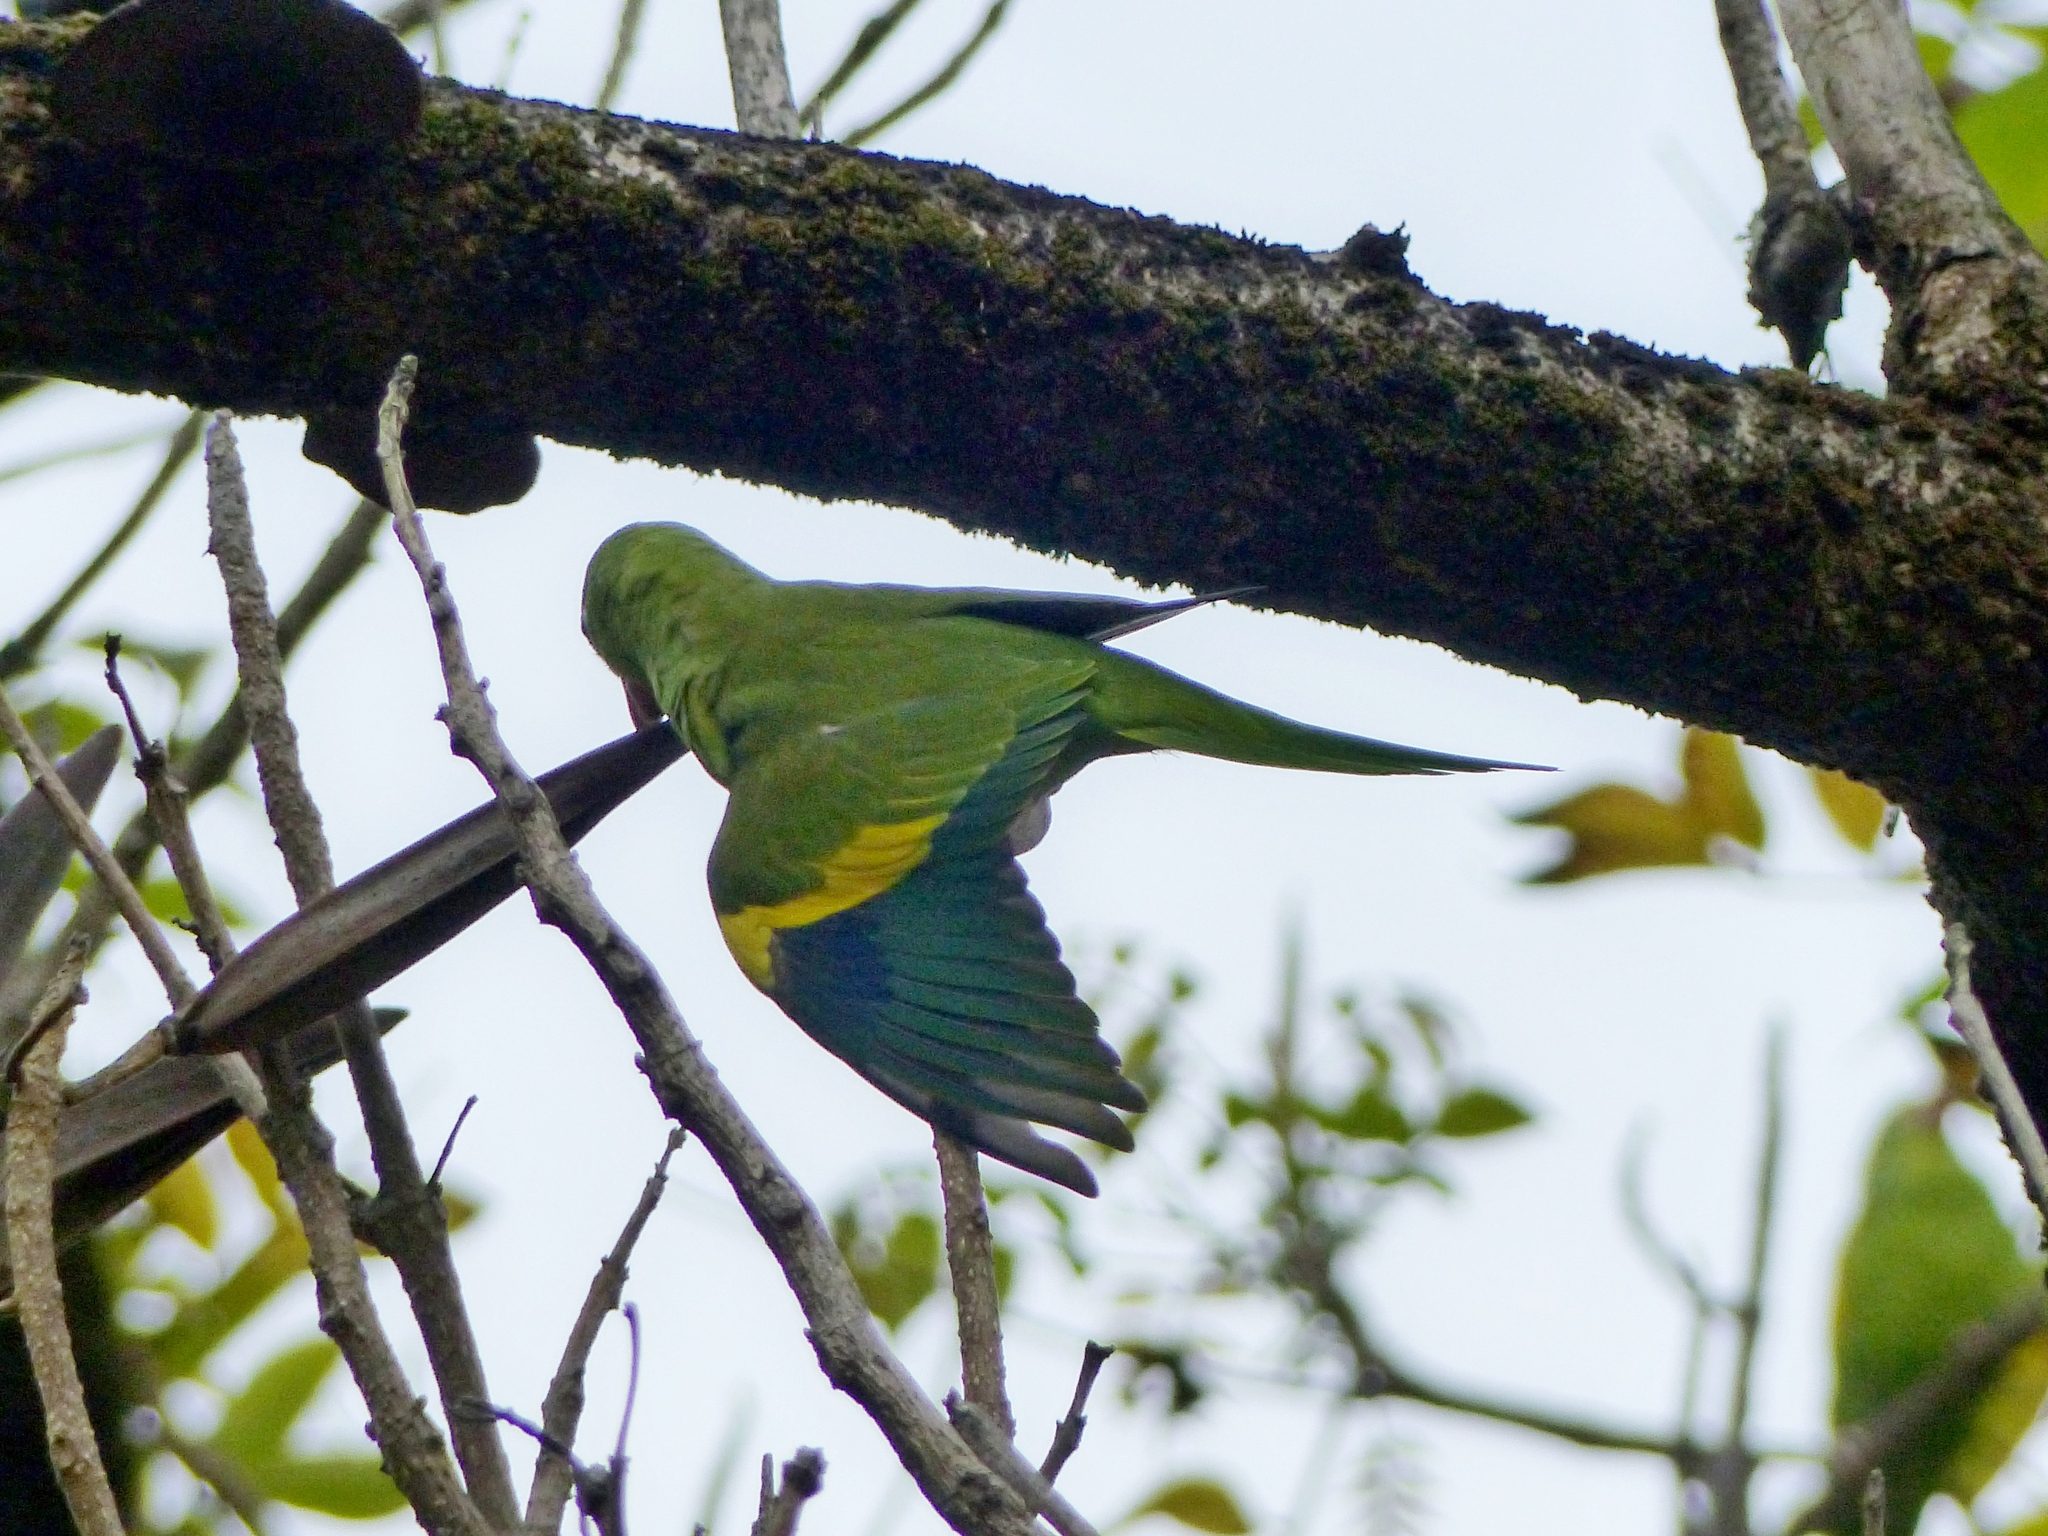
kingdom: Animalia
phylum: Chordata
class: Aves
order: Psittaciformes
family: Psittacidae
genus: Brotogeris
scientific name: Brotogeris chiriri
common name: Yellow-chevroned parakeet
